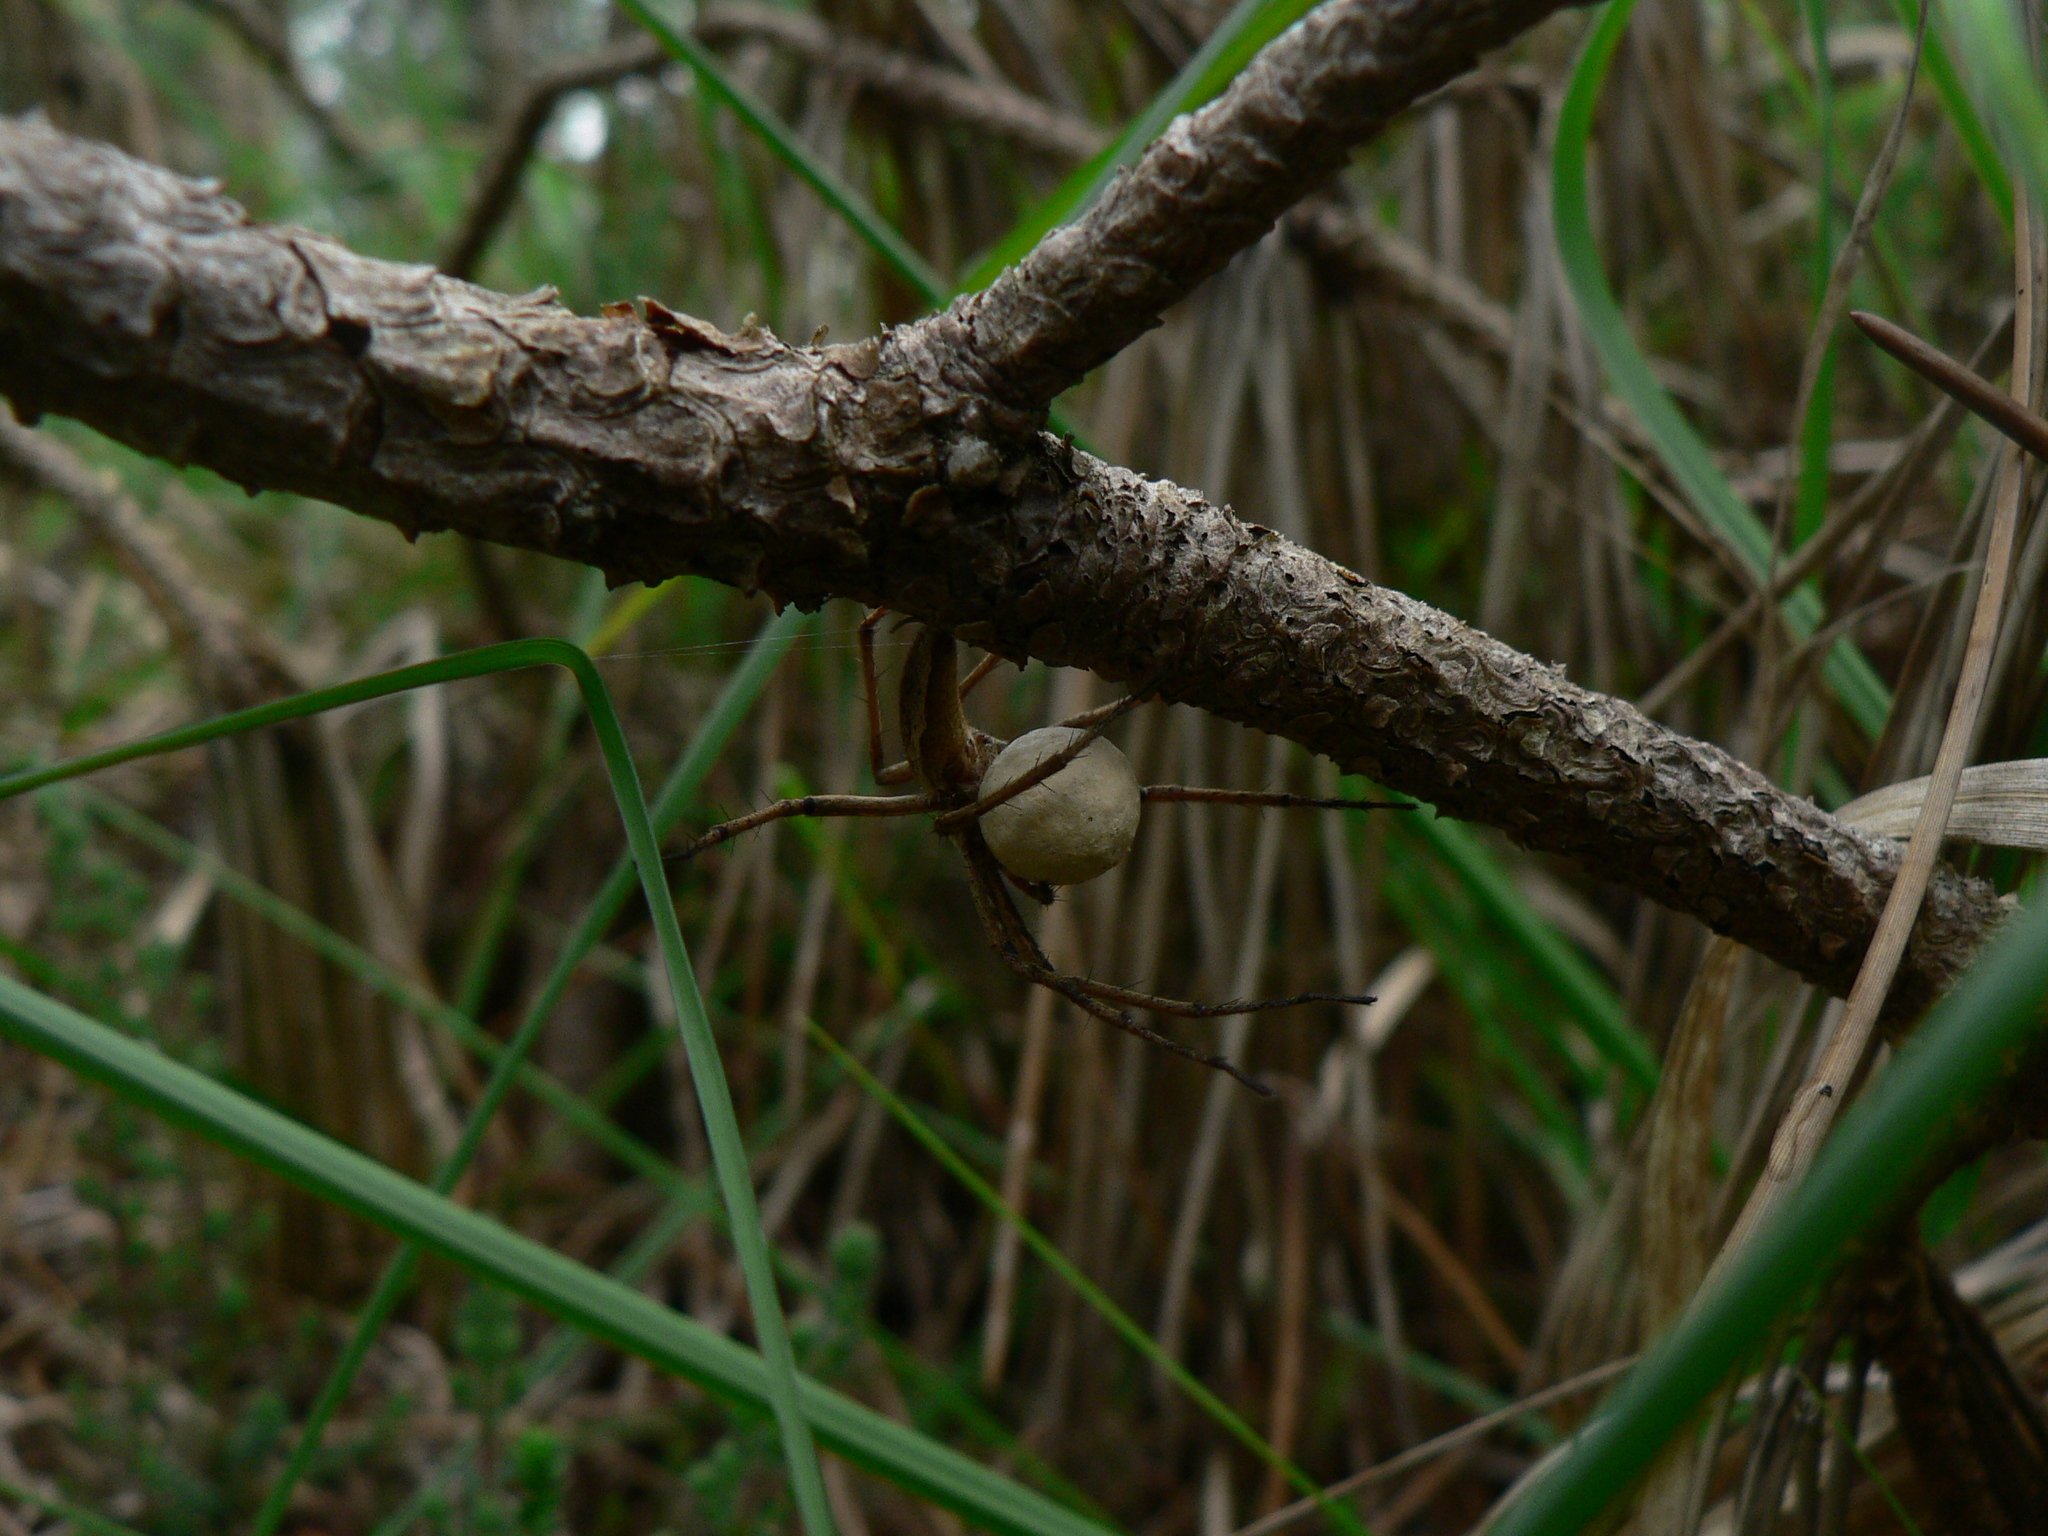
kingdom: Animalia
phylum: Arthropoda
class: Arachnida
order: Araneae
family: Pisauridae
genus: Pisaura
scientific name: Pisaura mirabilis
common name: Tent spider
